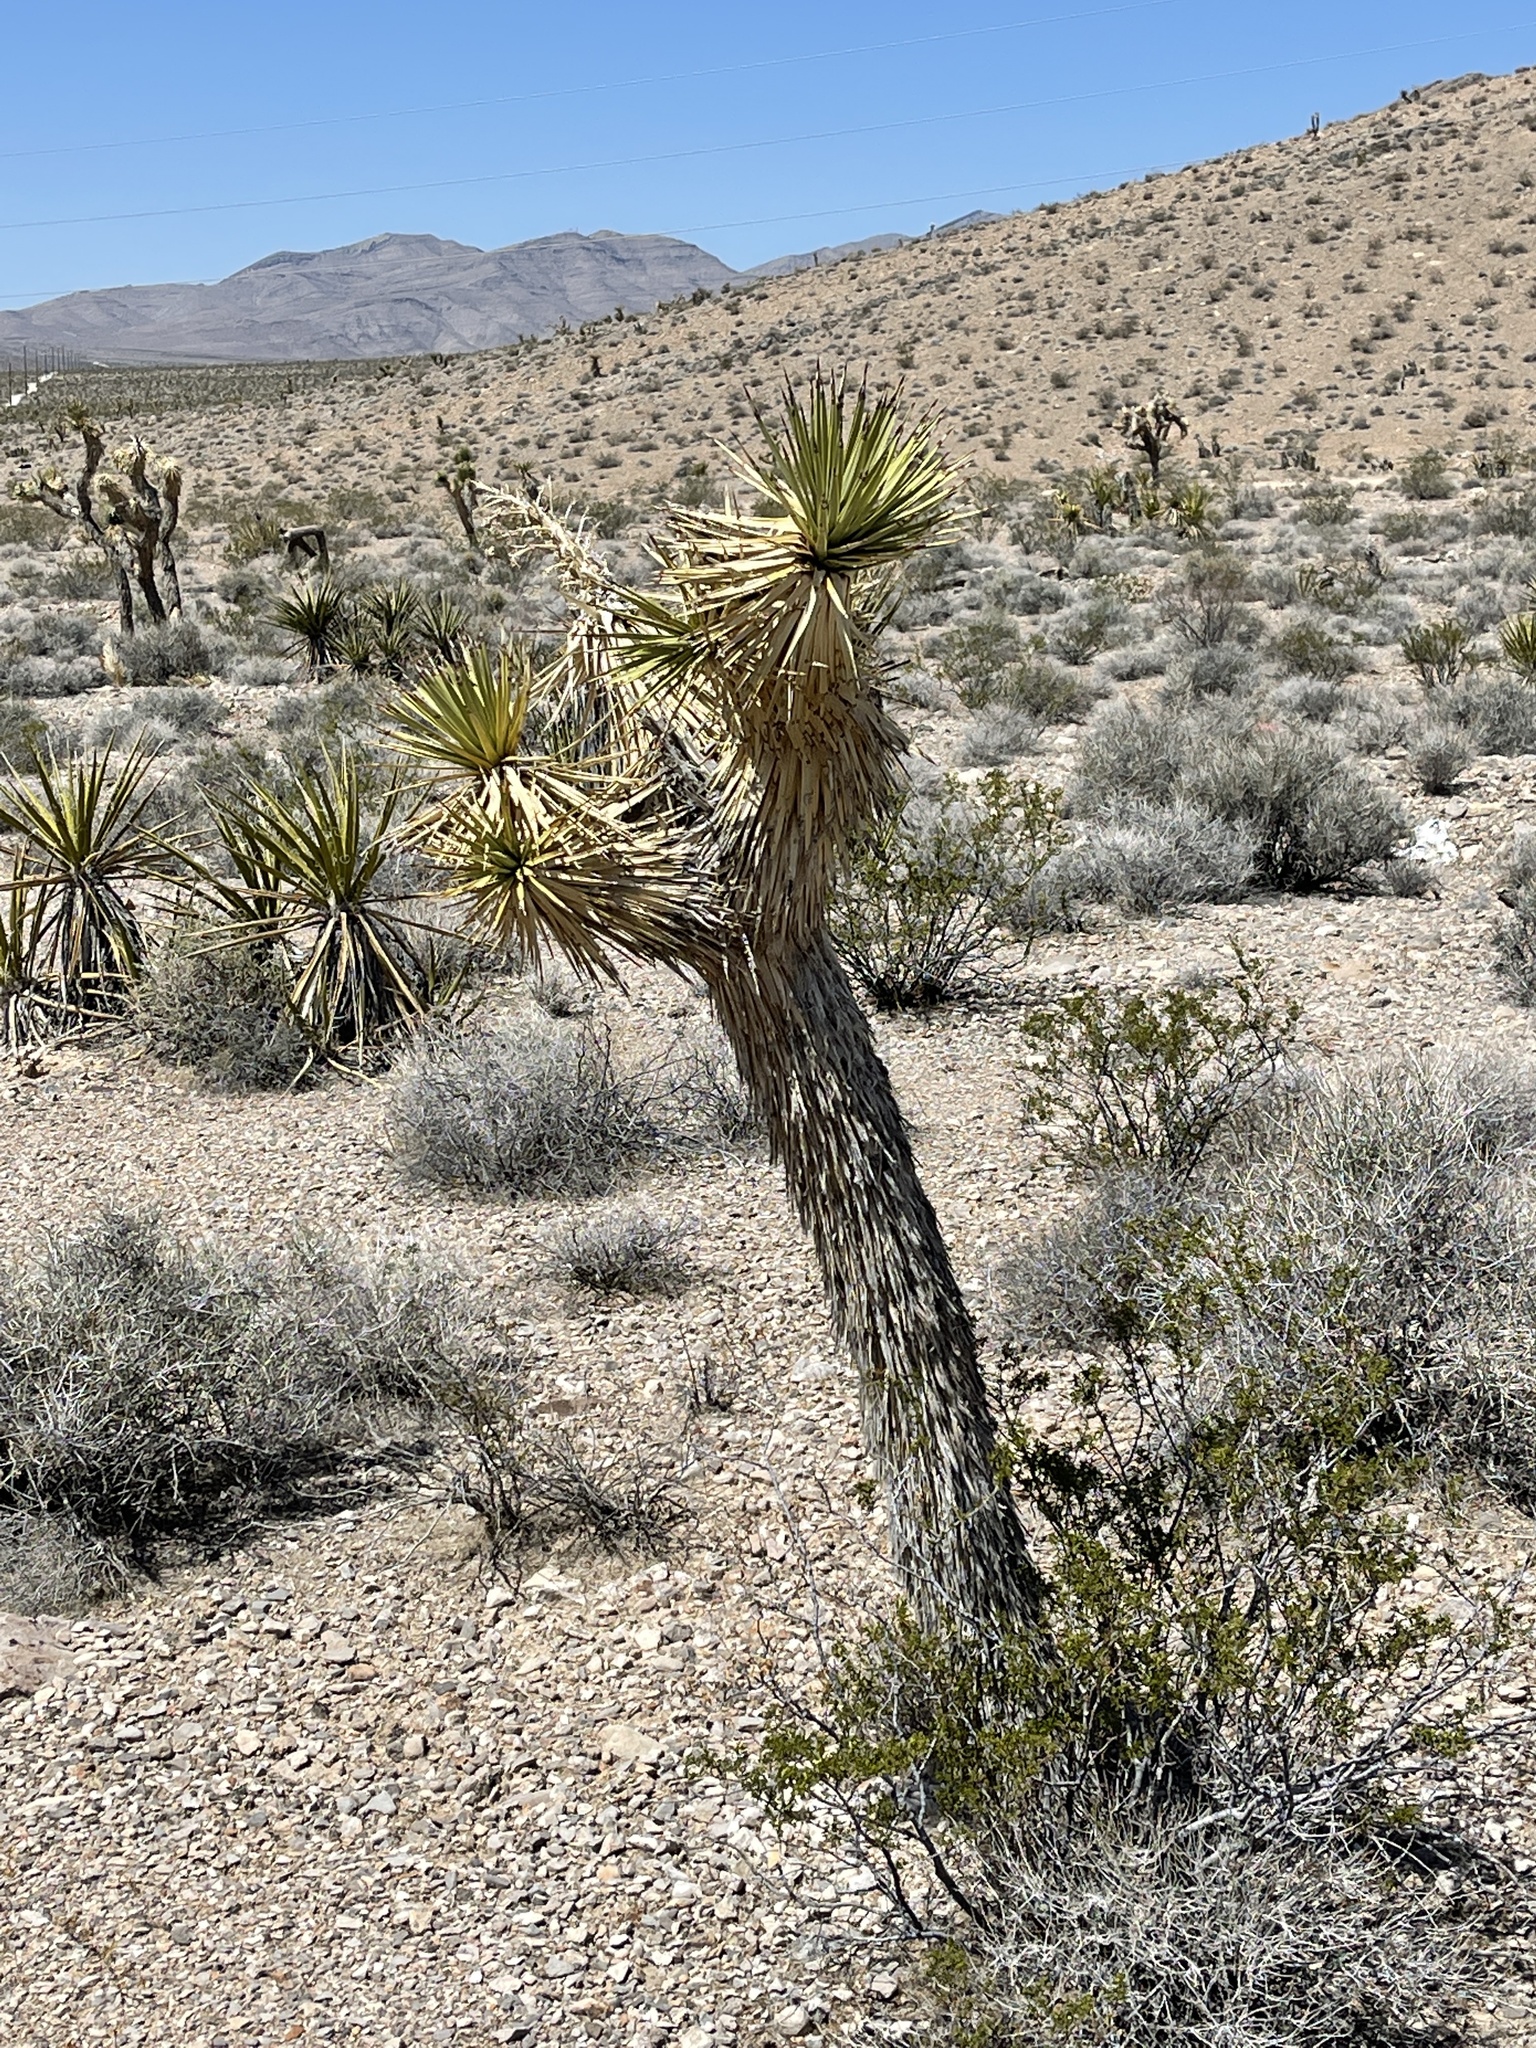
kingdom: Plantae
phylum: Tracheophyta
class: Liliopsida
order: Asparagales
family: Asparagaceae
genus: Yucca
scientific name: Yucca brevifolia
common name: Joshua tree
